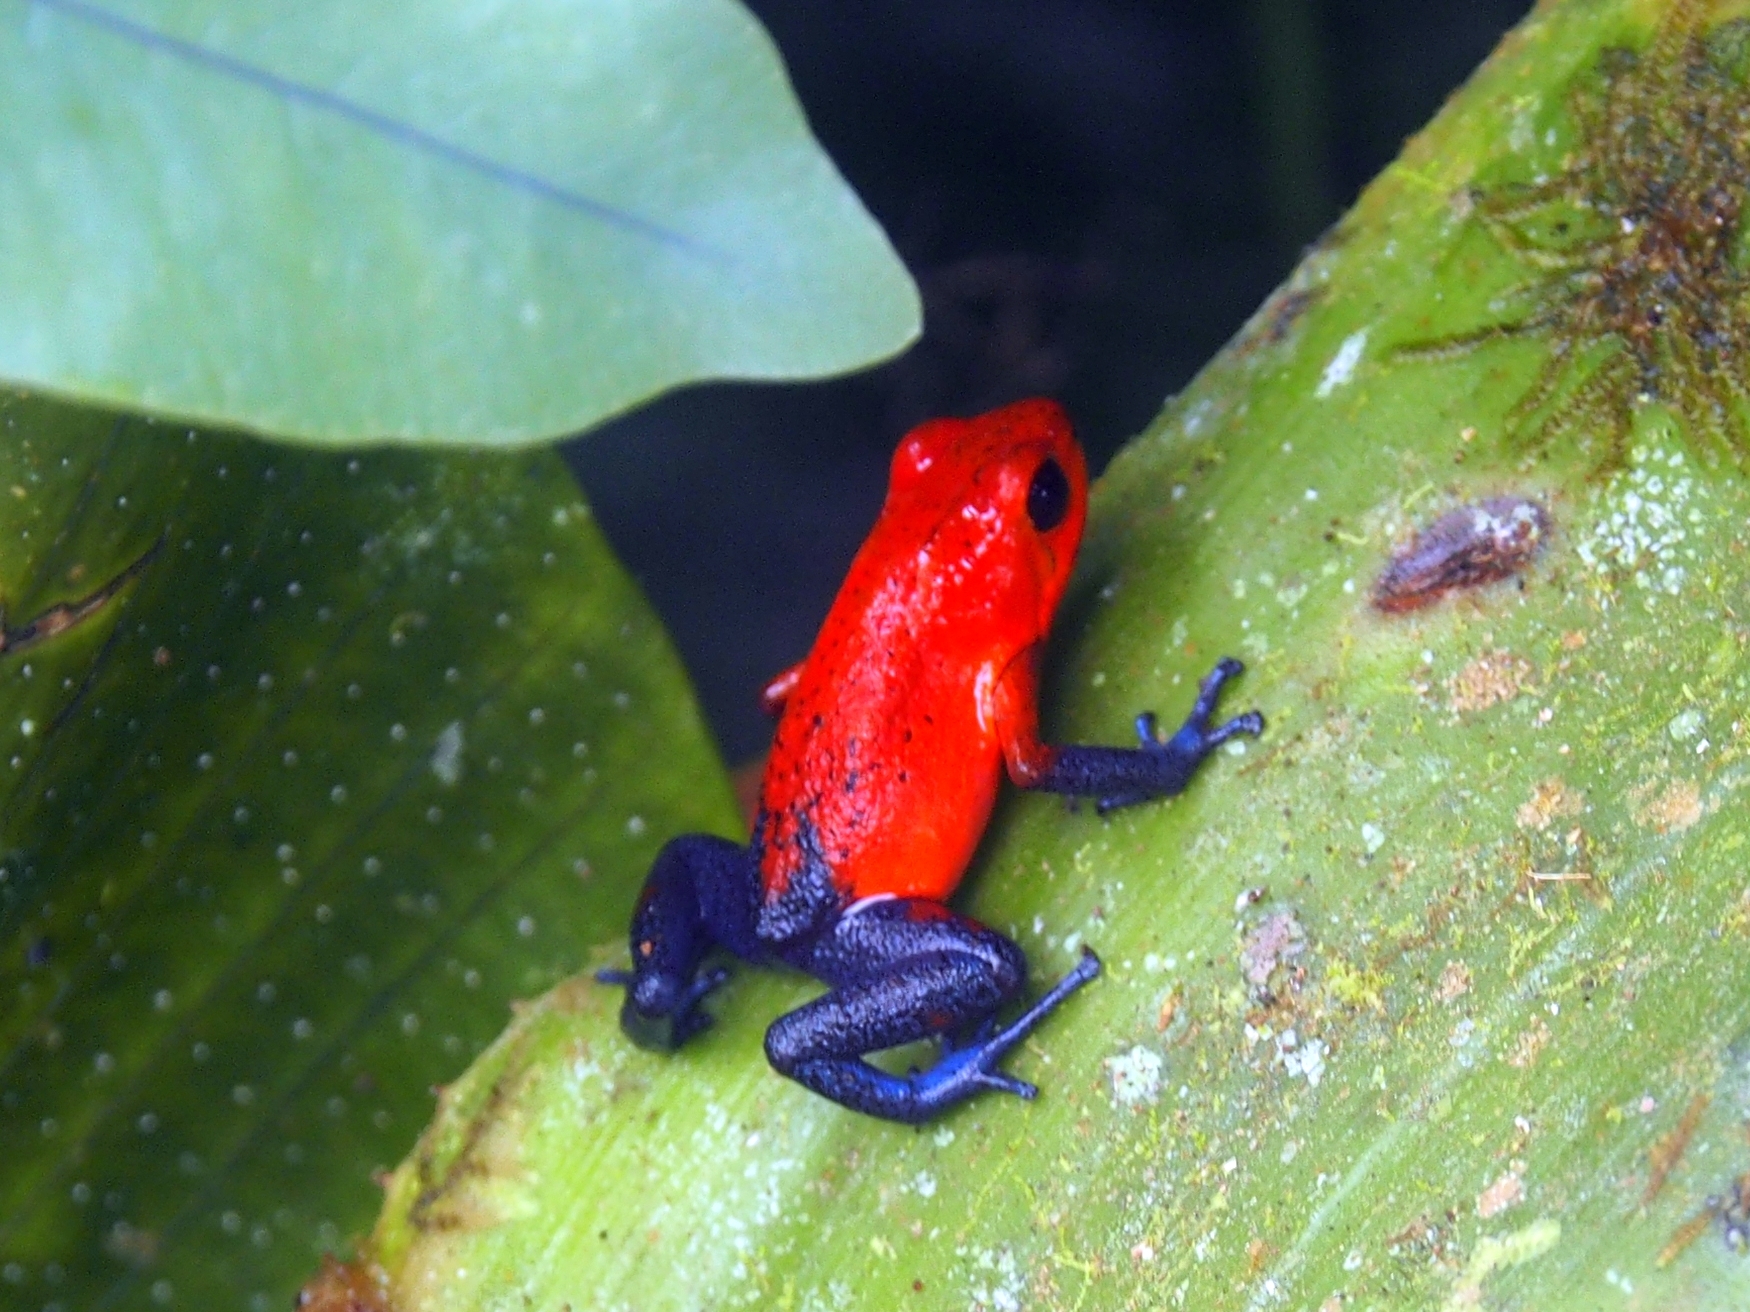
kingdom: Animalia
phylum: Chordata
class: Amphibia
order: Anura
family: Dendrobatidae
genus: Oophaga
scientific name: Oophaga pumilio
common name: Flaming poison frog
